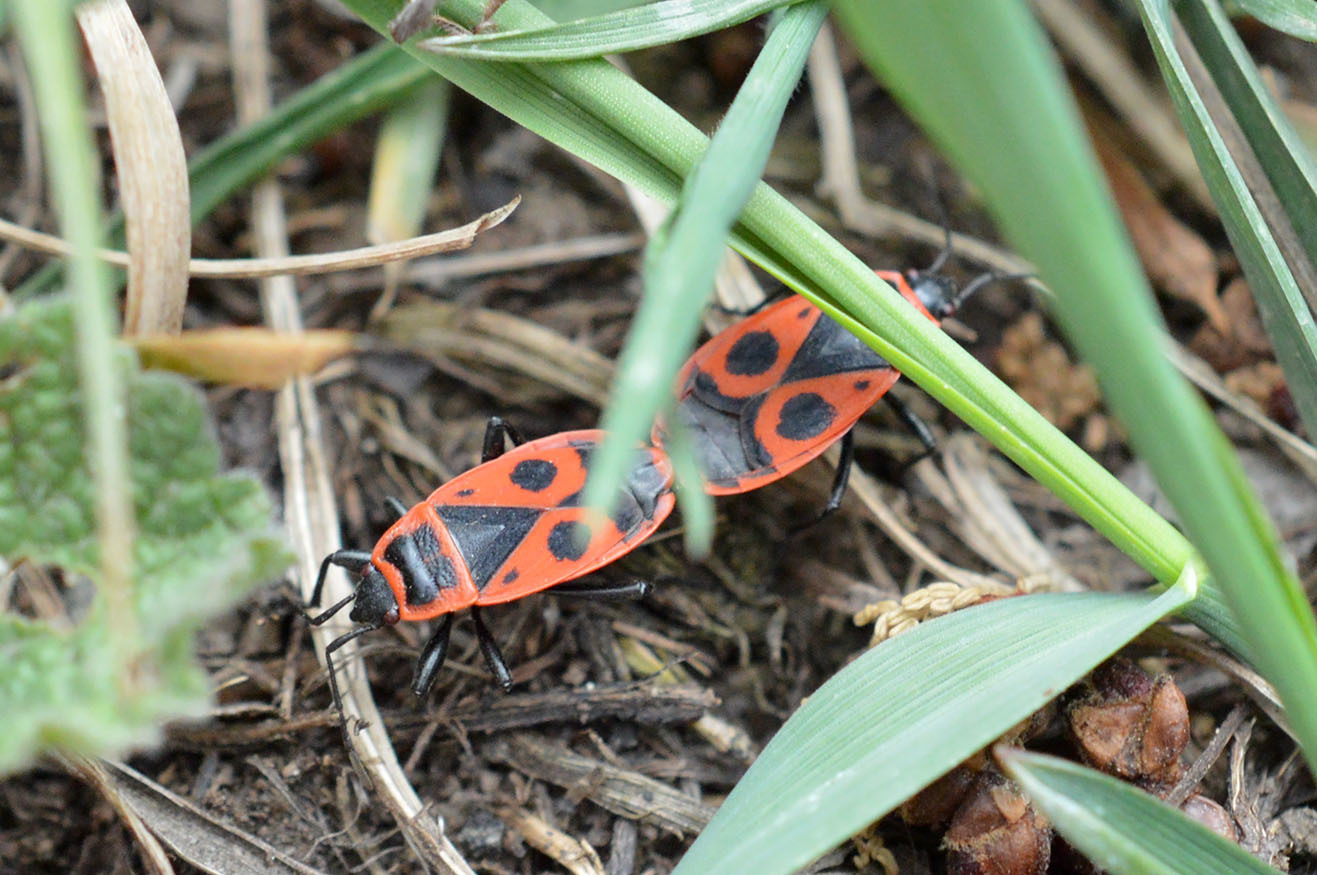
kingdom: Animalia
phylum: Arthropoda
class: Insecta
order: Hemiptera
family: Pyrrhocoridae
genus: Pyrrhocoris
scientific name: Pyrrhocoris apterus
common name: Firebug
